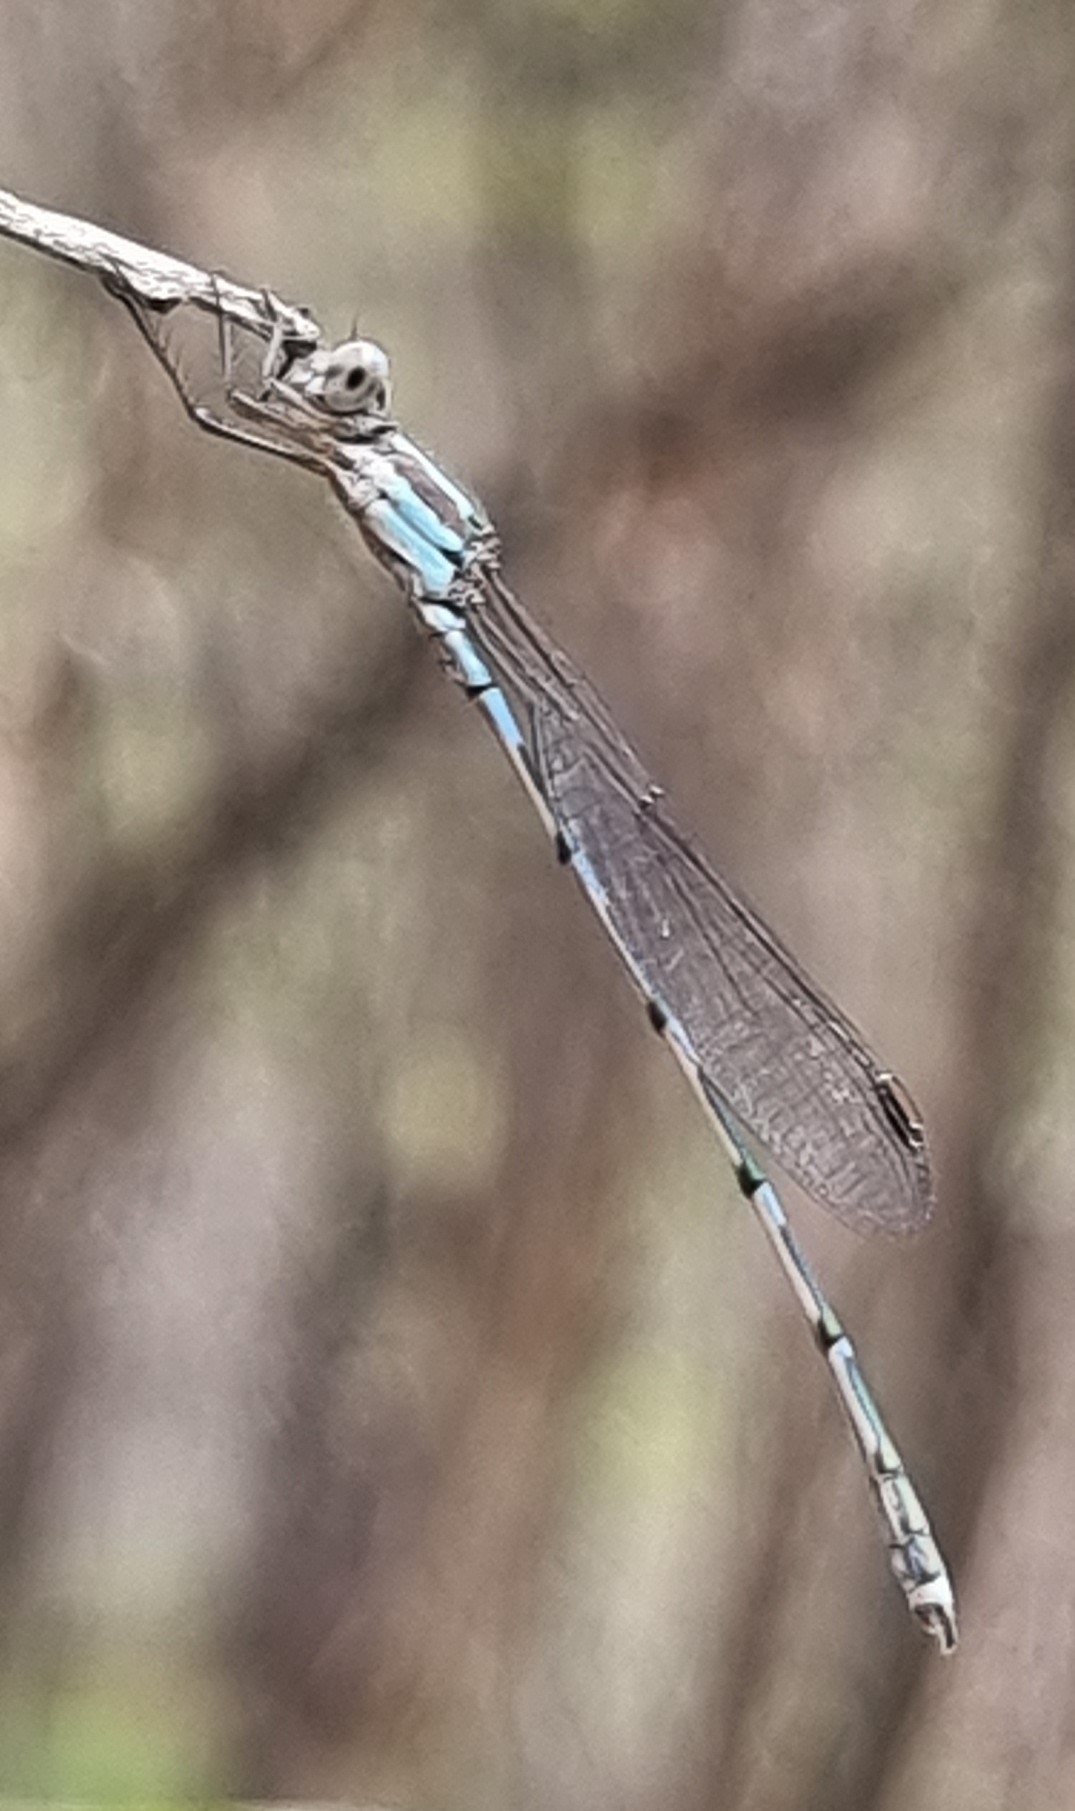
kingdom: Animalia
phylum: Arthropoda
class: Insecta
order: Odonata
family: Lestidae
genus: Austrolestes
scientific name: Austrolestes leda
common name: Wandering ringtail
